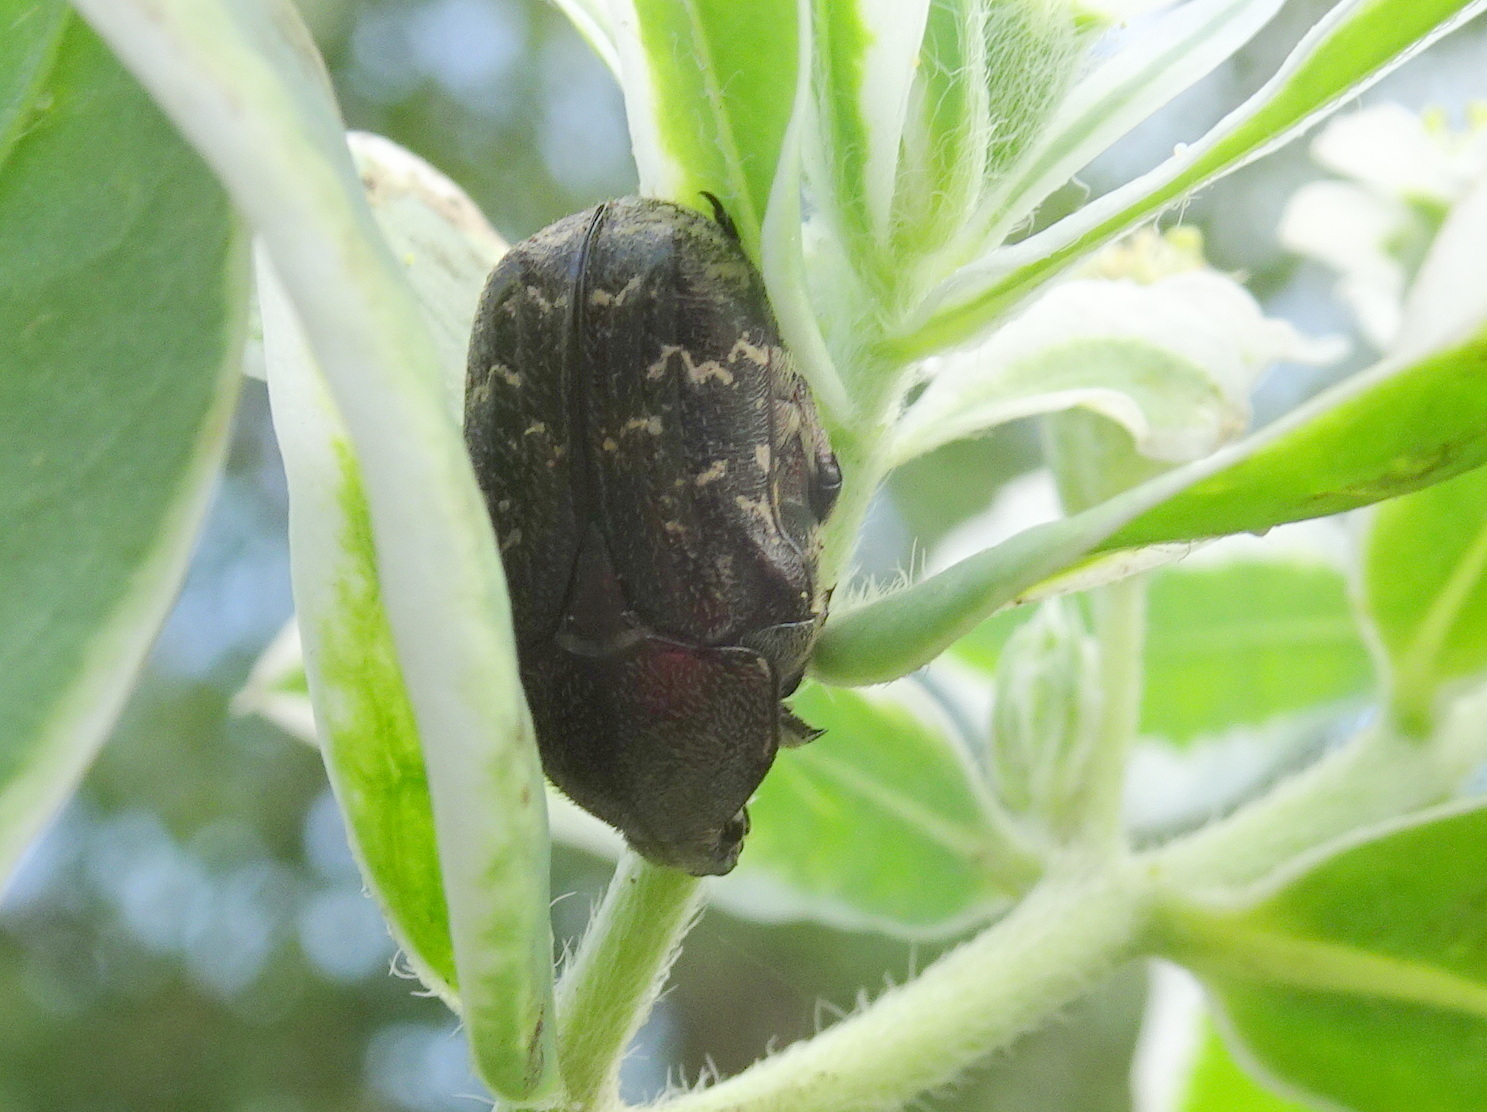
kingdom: Animalia
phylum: Arthropoda
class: Insecta
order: Coleoptera
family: Scarabaeidae
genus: Euphoria
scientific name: Euphoria sepulcralis
